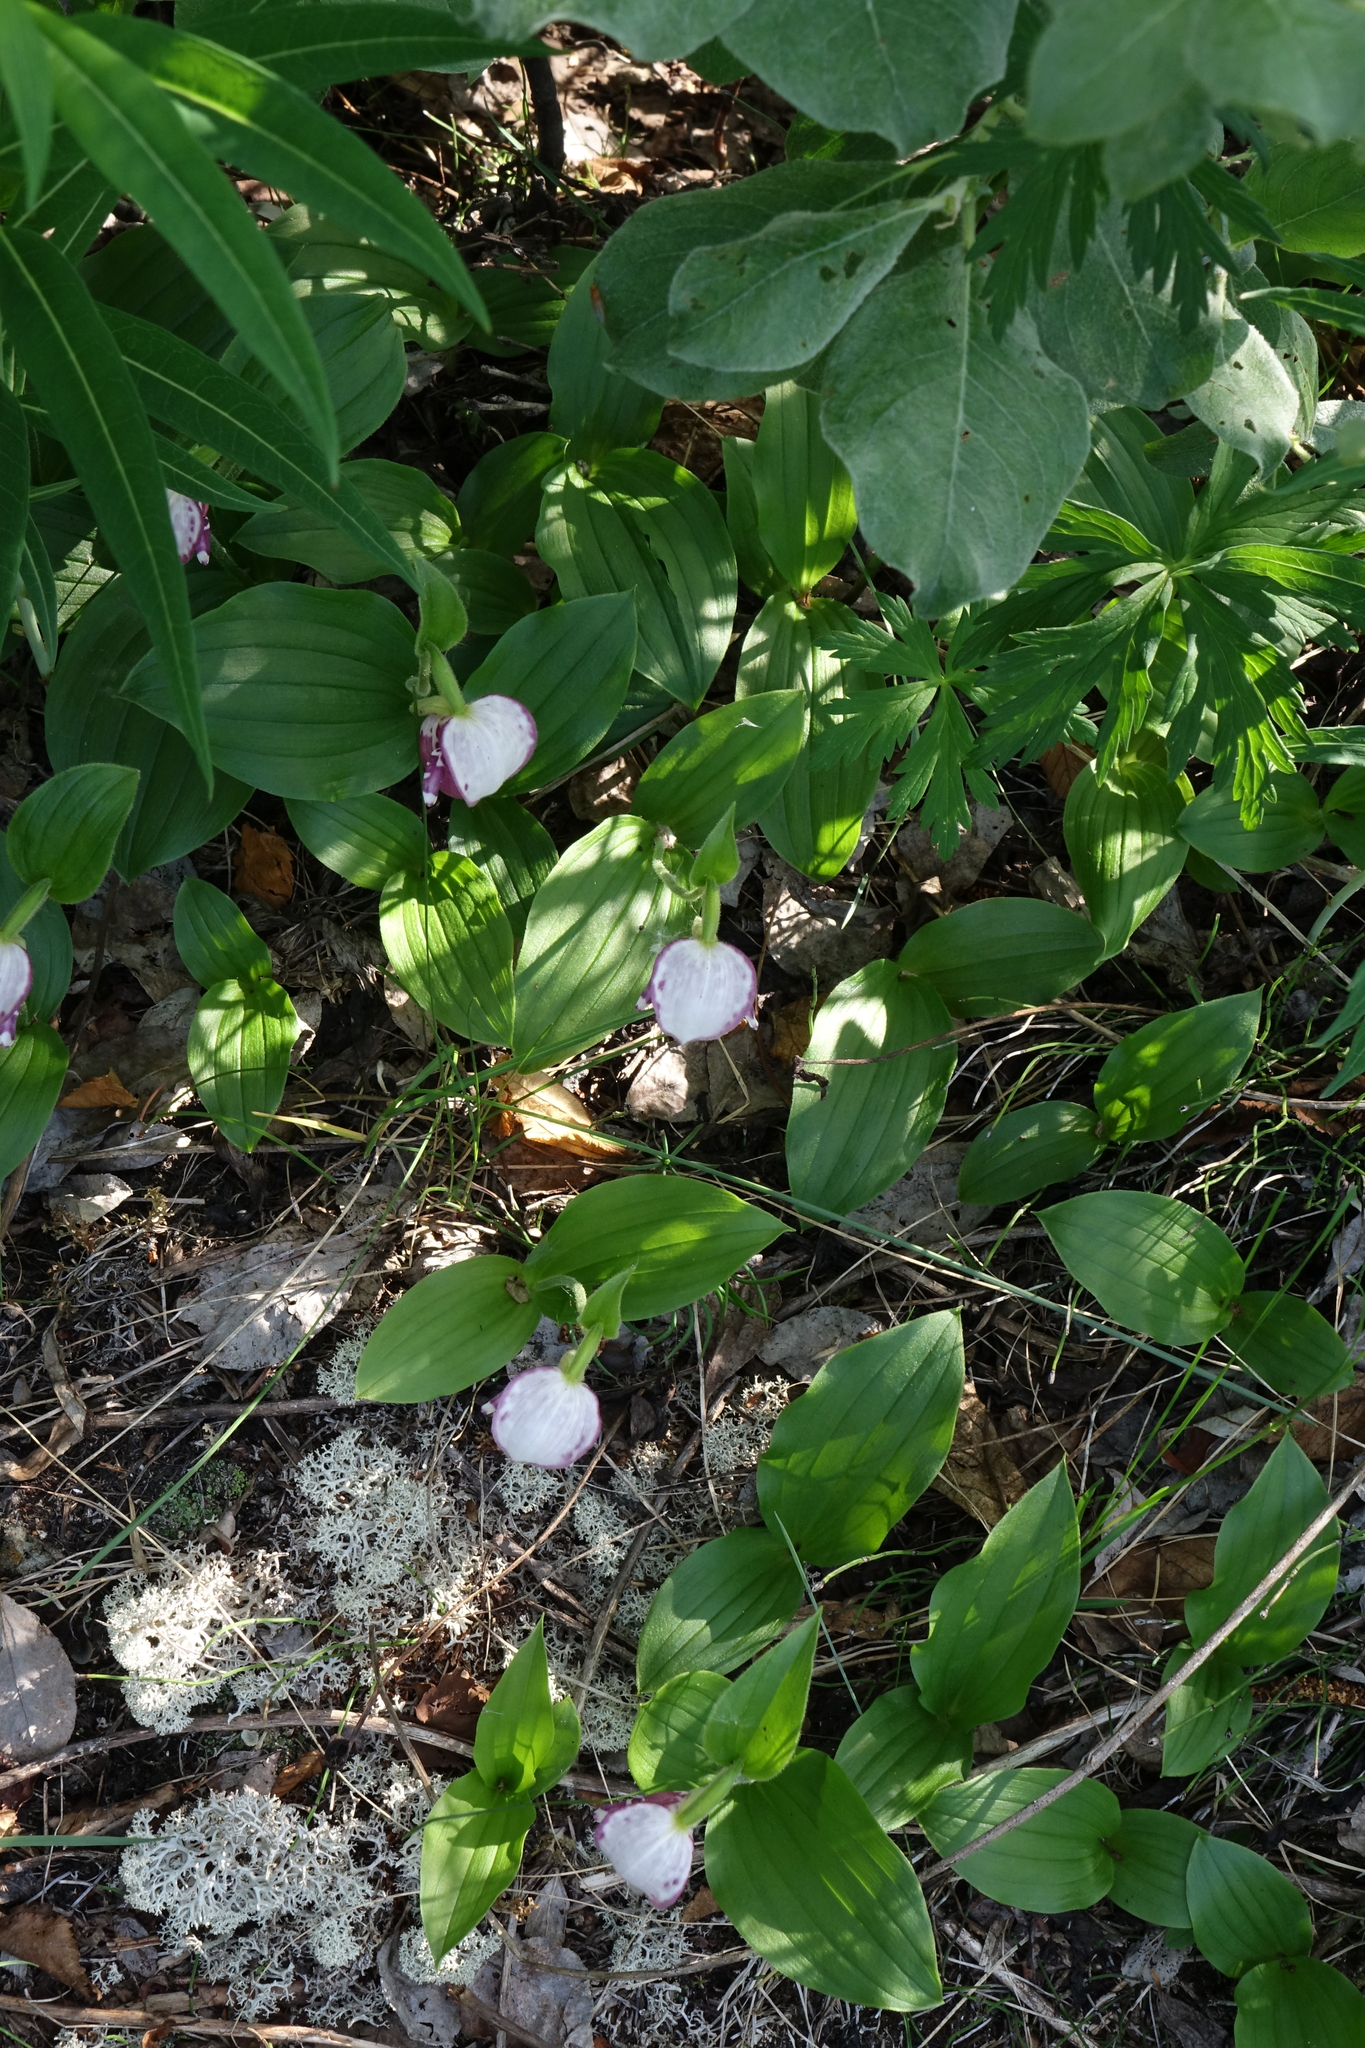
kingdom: Plantae
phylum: Tracheophyta
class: Liliopsida
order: Asparagales
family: Orchidaceae
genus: Cypripedium
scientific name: Cypripedium guttatum
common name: Pink lady slipper
